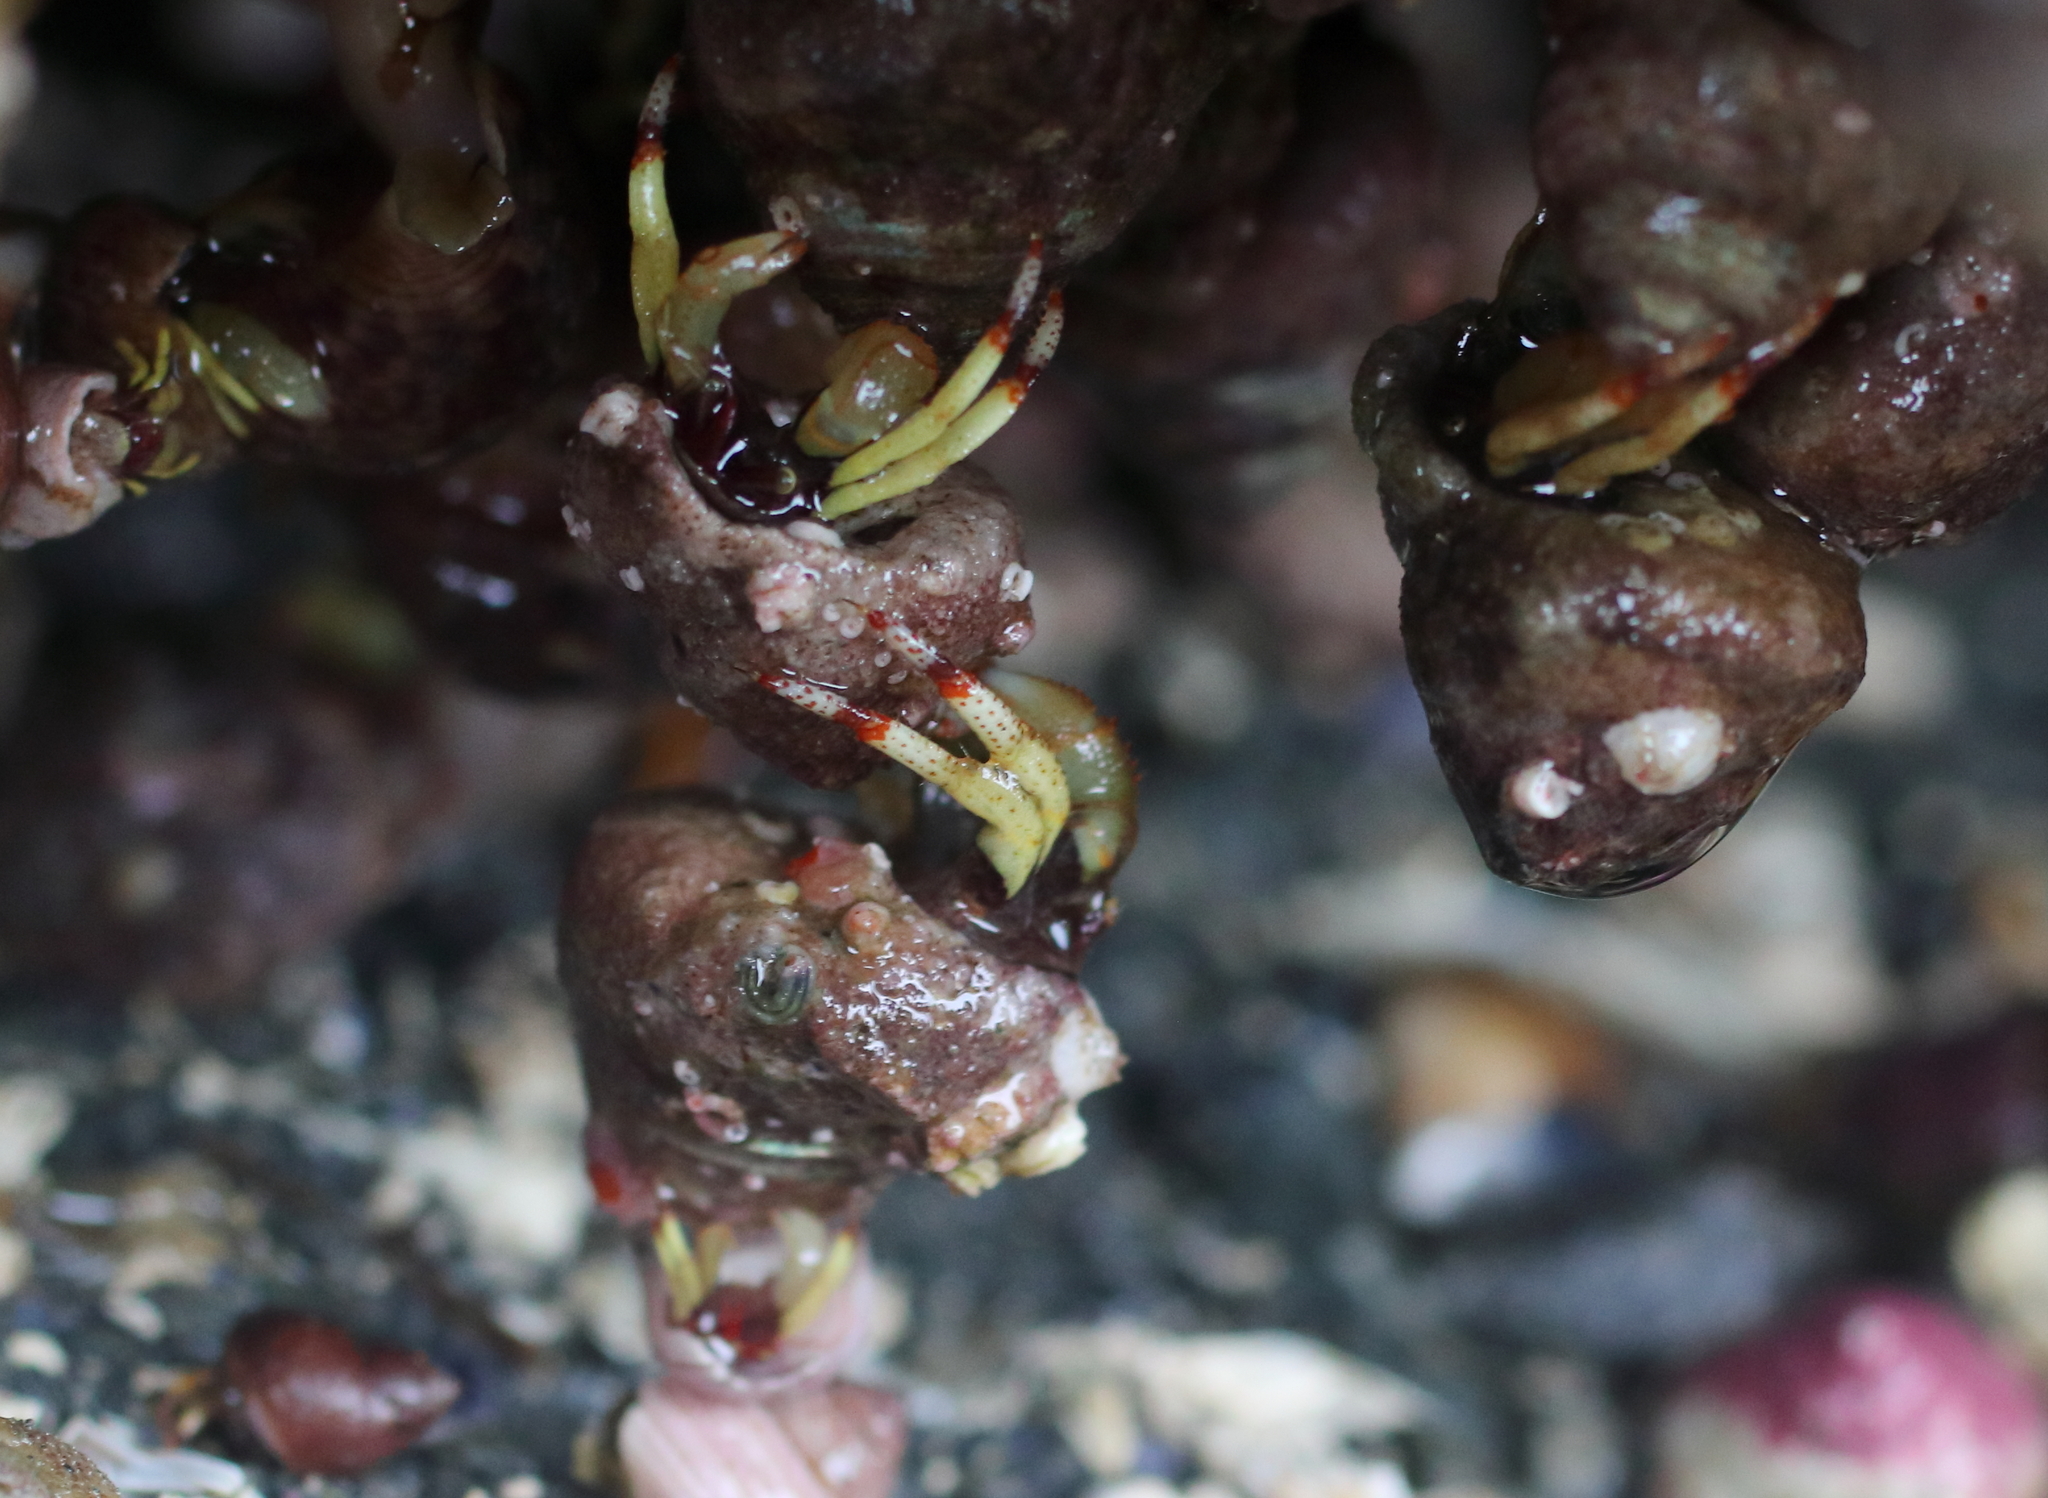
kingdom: Animalia
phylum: Arthropoda
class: Malacostraca
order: Decapoda
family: Paguridae
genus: Pagurus
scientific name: Pagurus beringanus
